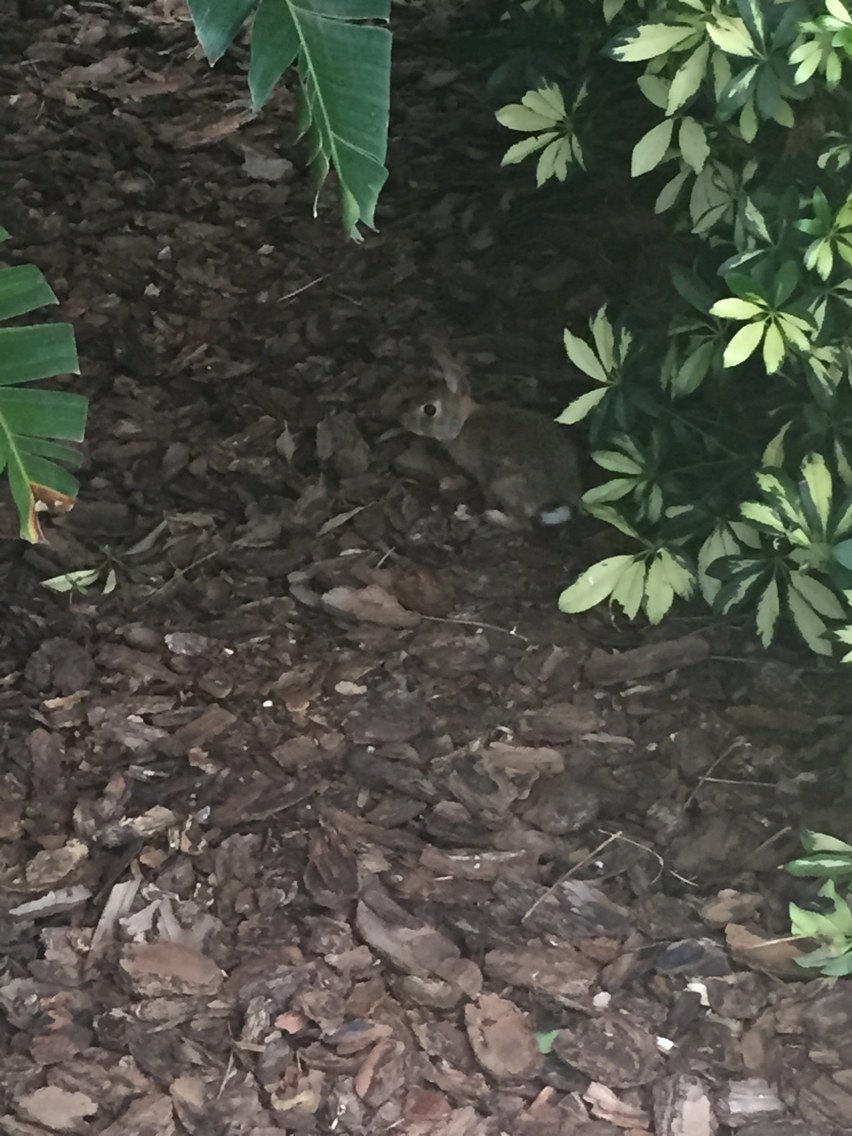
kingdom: Animalia
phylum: Chordata
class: Mammalia
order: Lagomorpha
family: Leporidae
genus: Sylvilagus
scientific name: Sylvilagus floridanus
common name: Eastern cottontail
